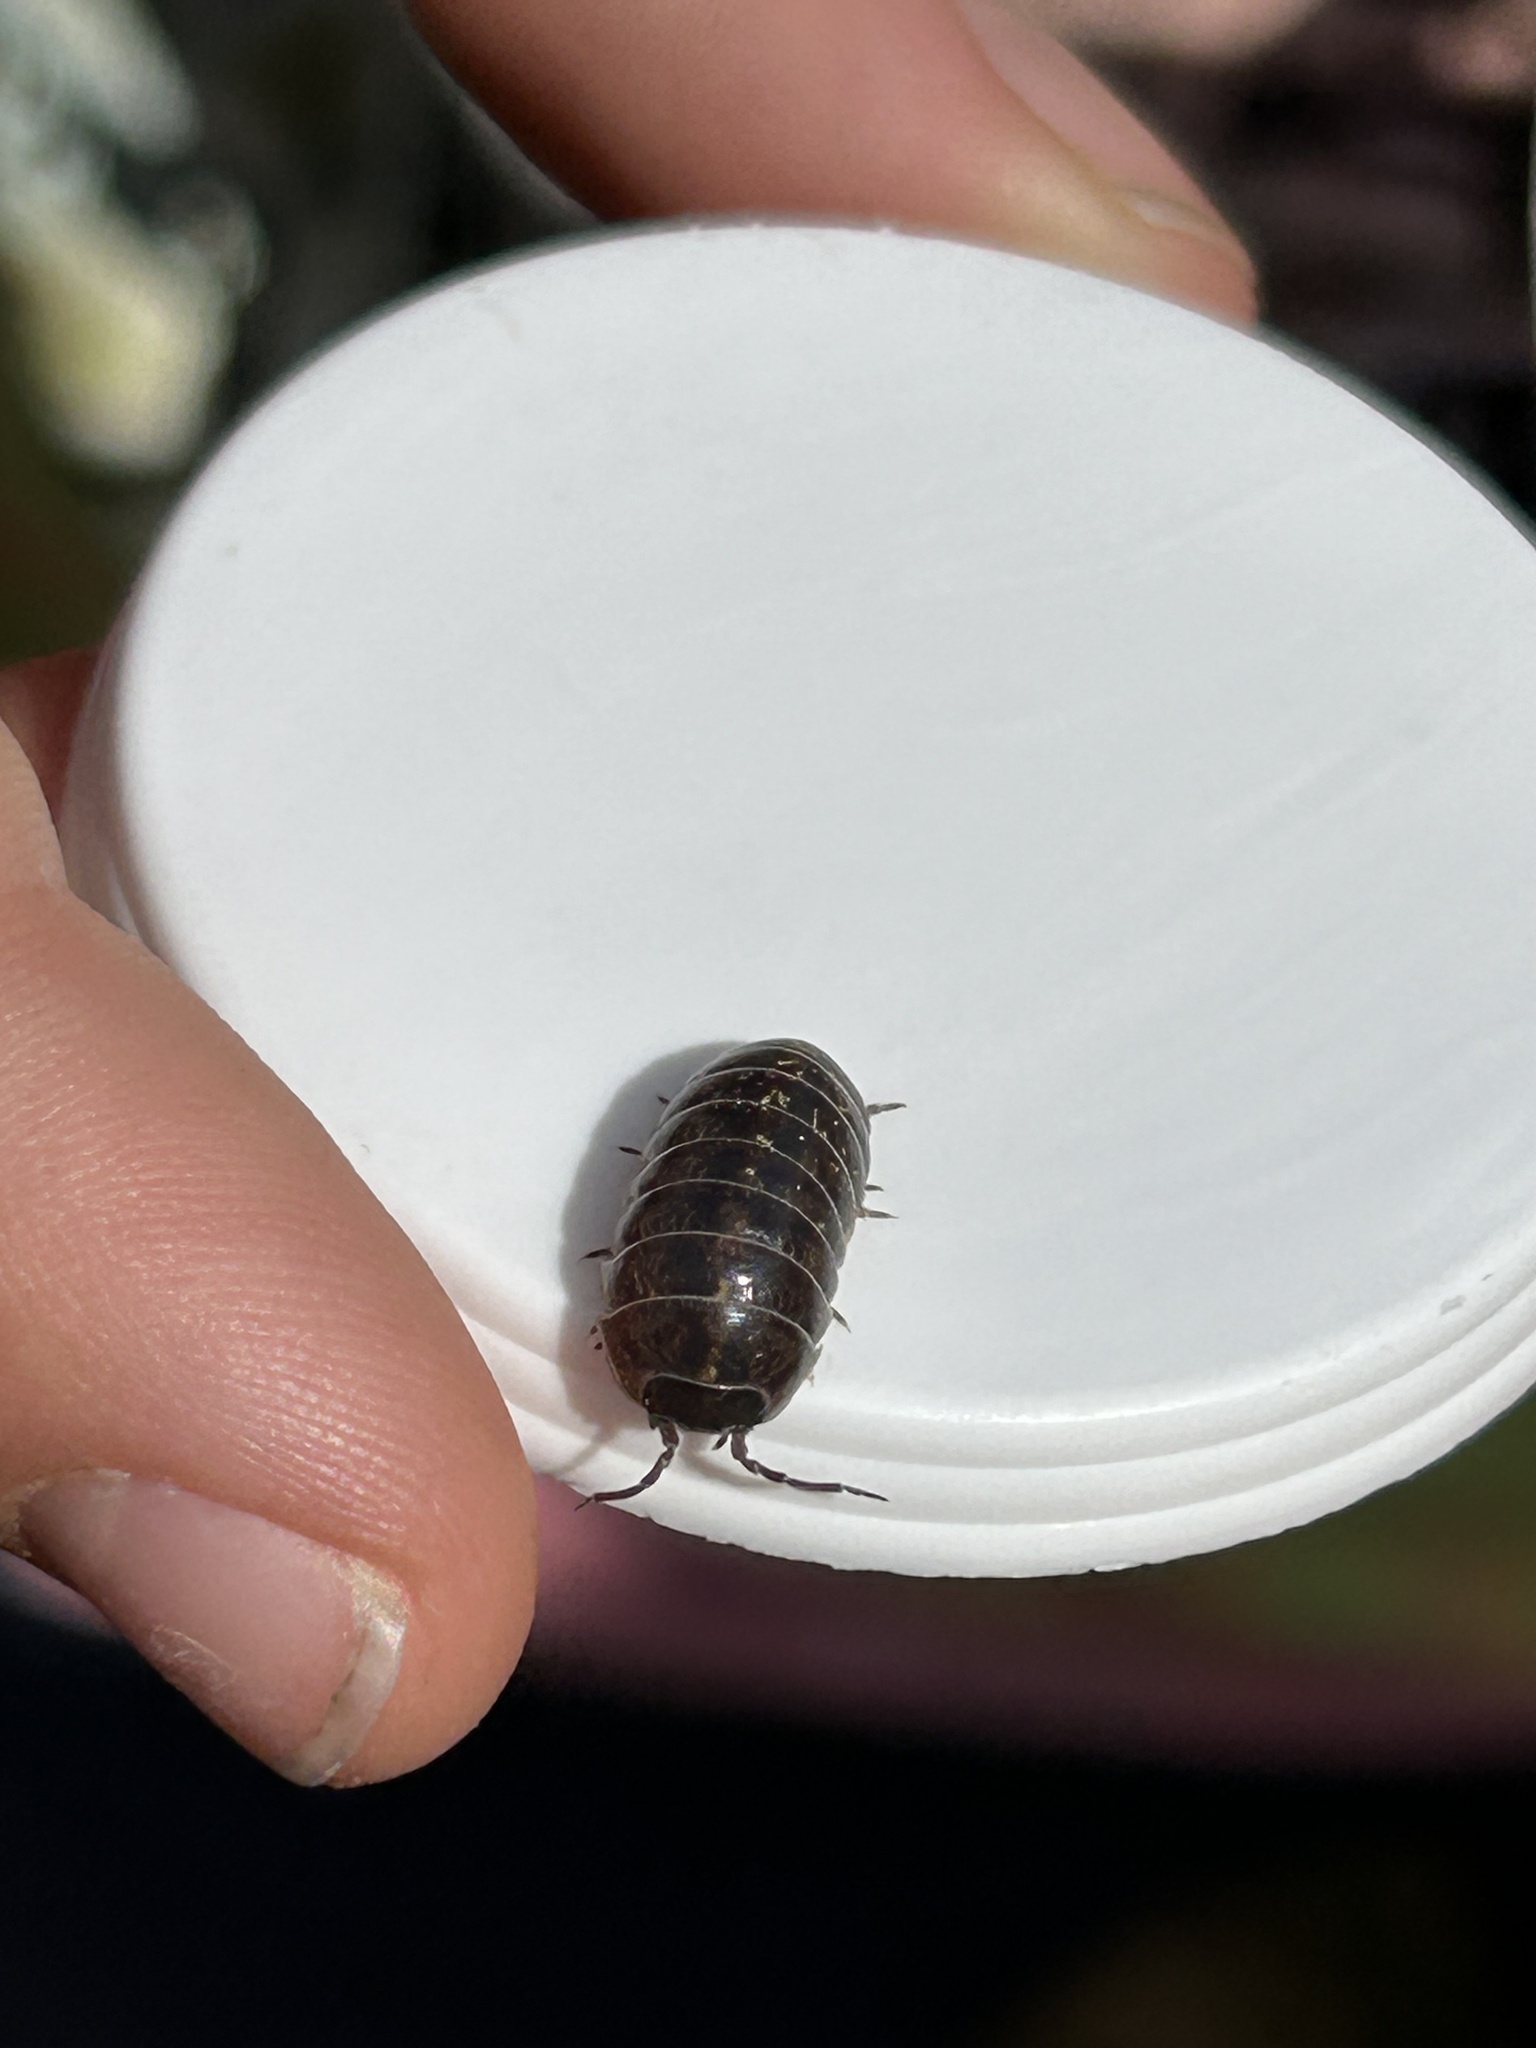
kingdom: Animalia
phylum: Arthropoda
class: Malacostraca
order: Isopoda
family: Armadillidiidae
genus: Armadillidium
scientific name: Armadillidium vulgare
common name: Common pill woodlouse
